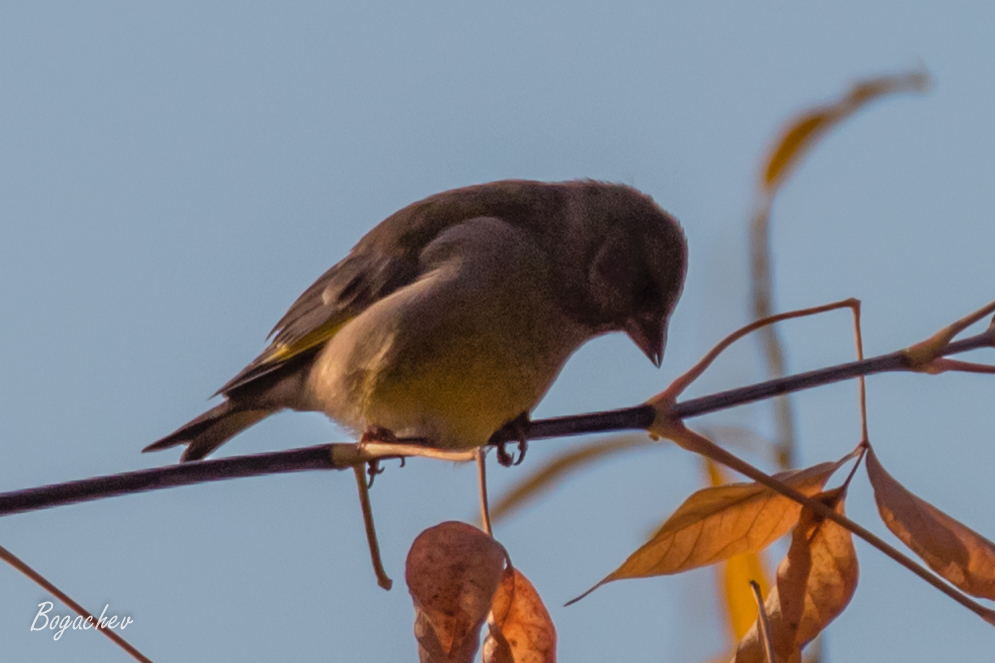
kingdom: Plantae
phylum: Tracheophyta
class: Liliopsida
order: Poales
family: Poaceae
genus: Chloris
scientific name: Chloris chloris
